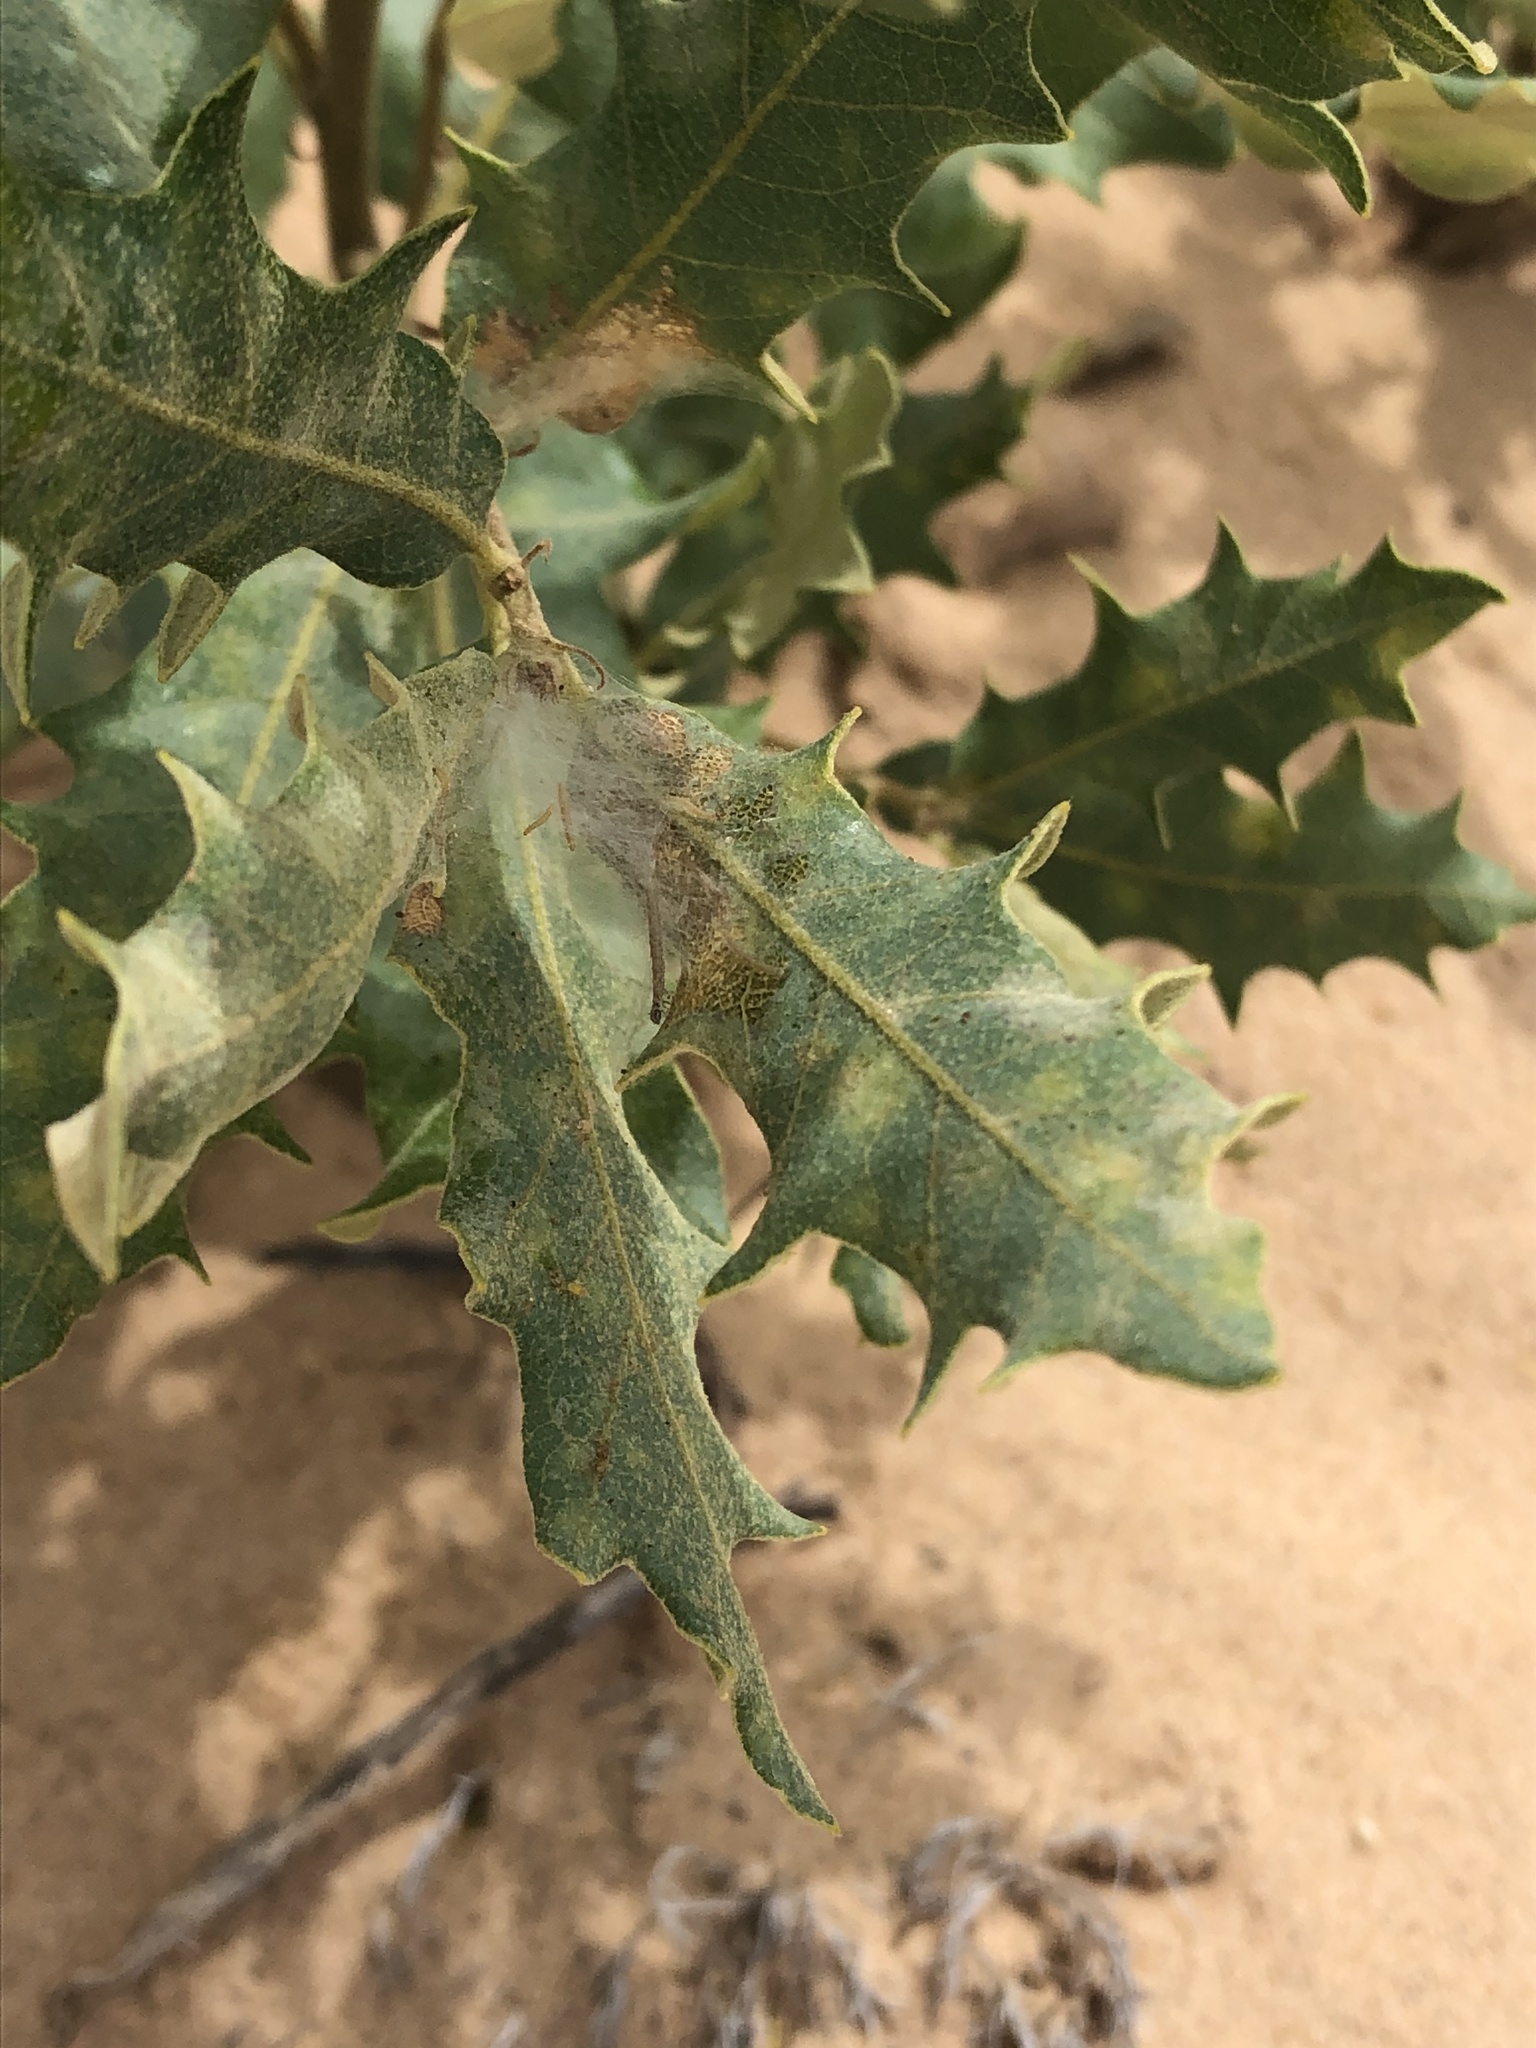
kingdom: Plantae
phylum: Tracheophyta
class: Magnoliopsida
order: Fagales
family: Fagaceae
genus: Quercus
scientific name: Quercus havardii
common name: Shinnery oak
